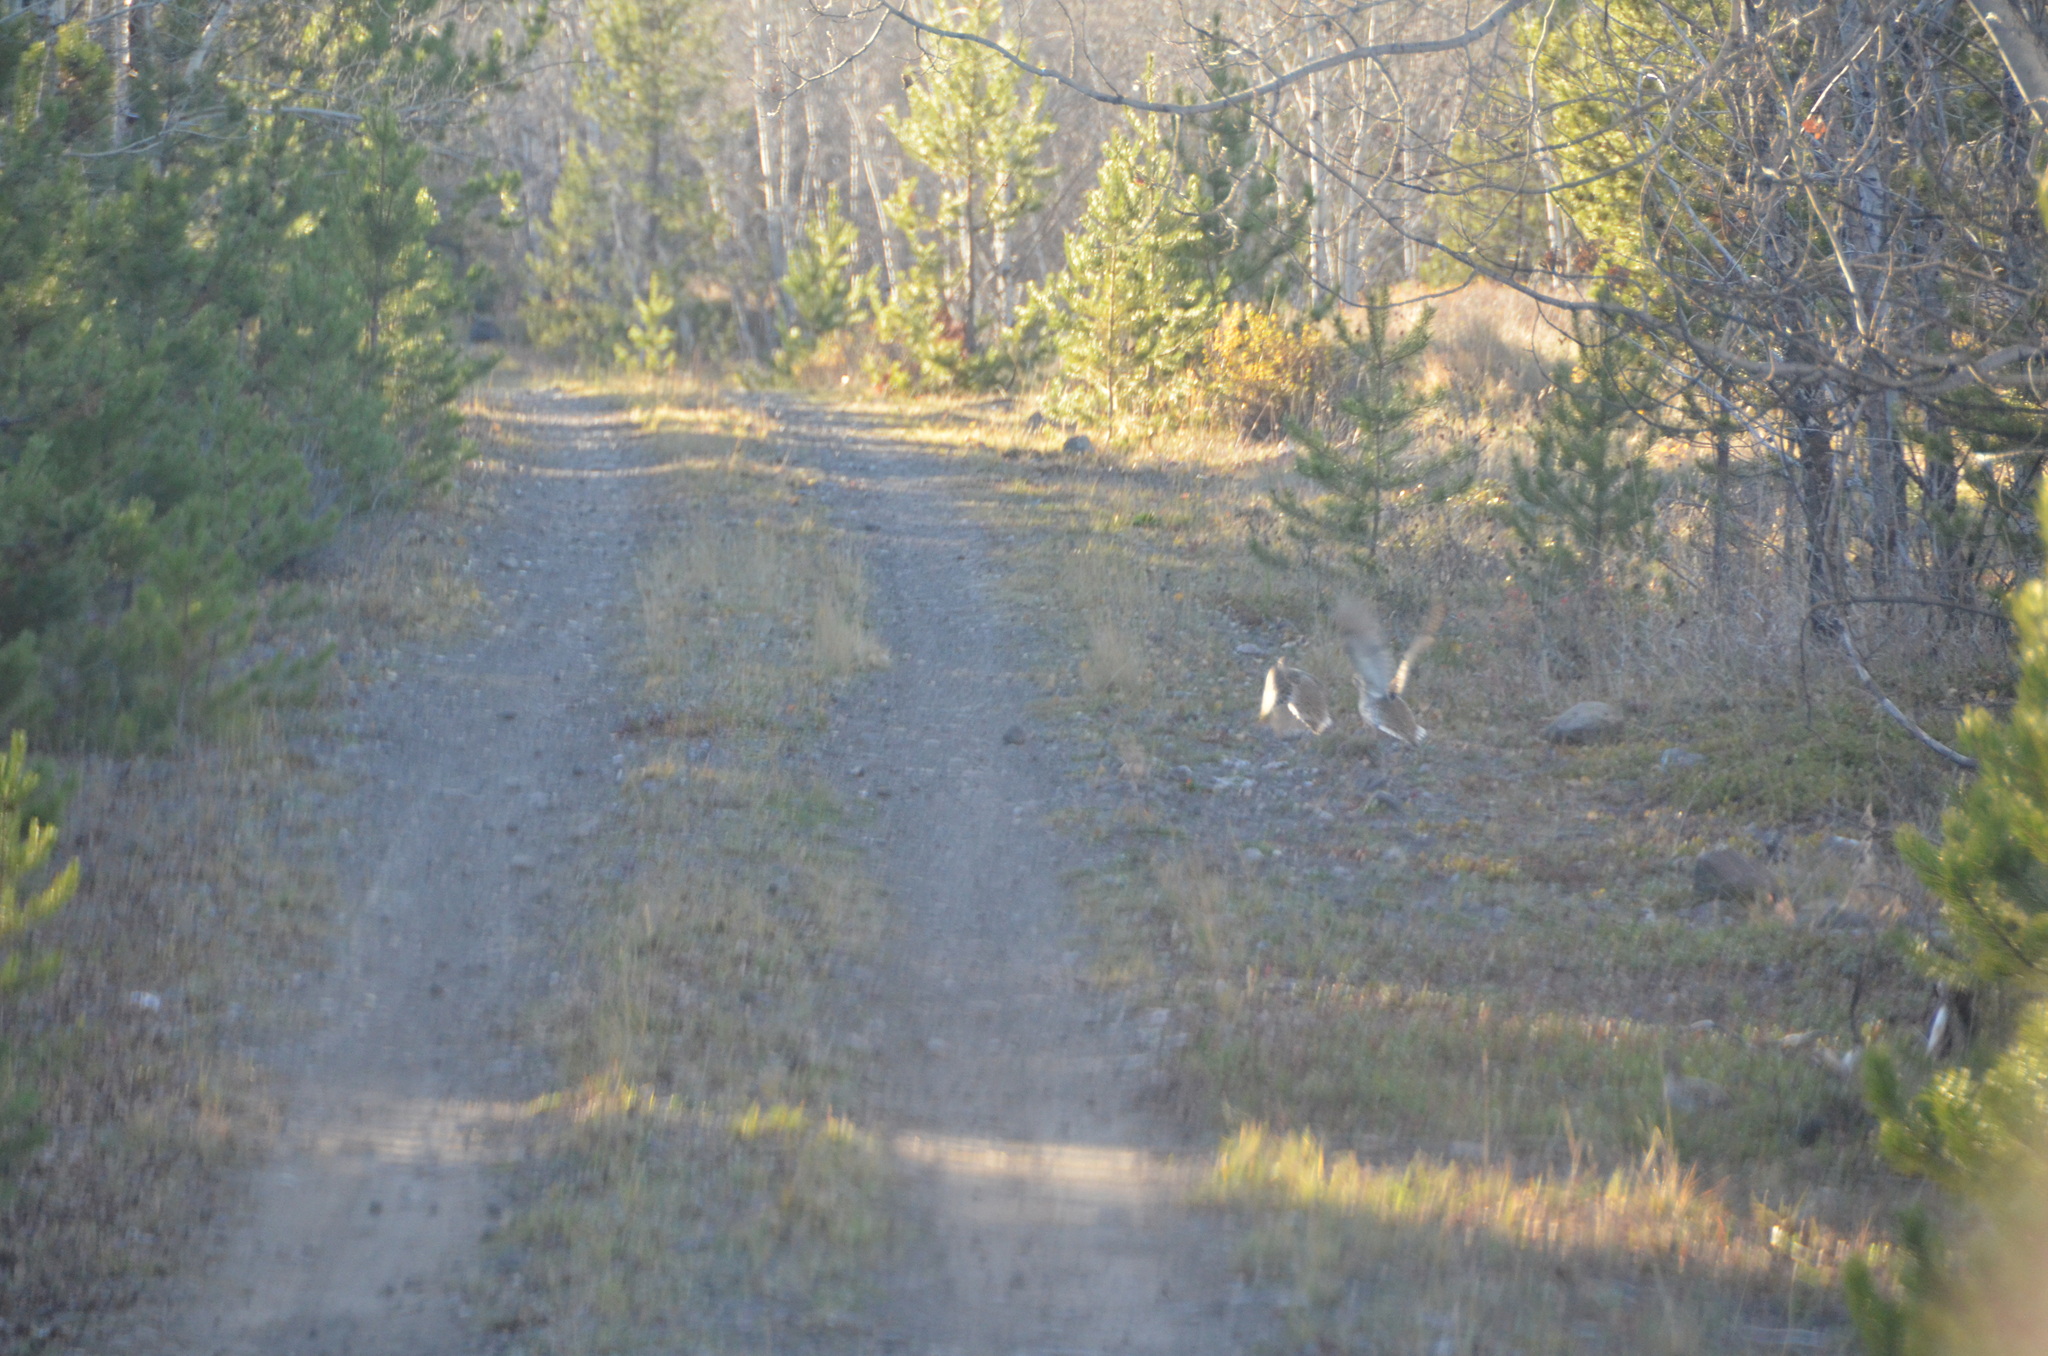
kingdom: Animalia
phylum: Chordata
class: Aves
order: Galliformes
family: Phasianidae
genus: Tympanuchus
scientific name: Tympanuchus phasianellus
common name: Sharp-tailed grouse
